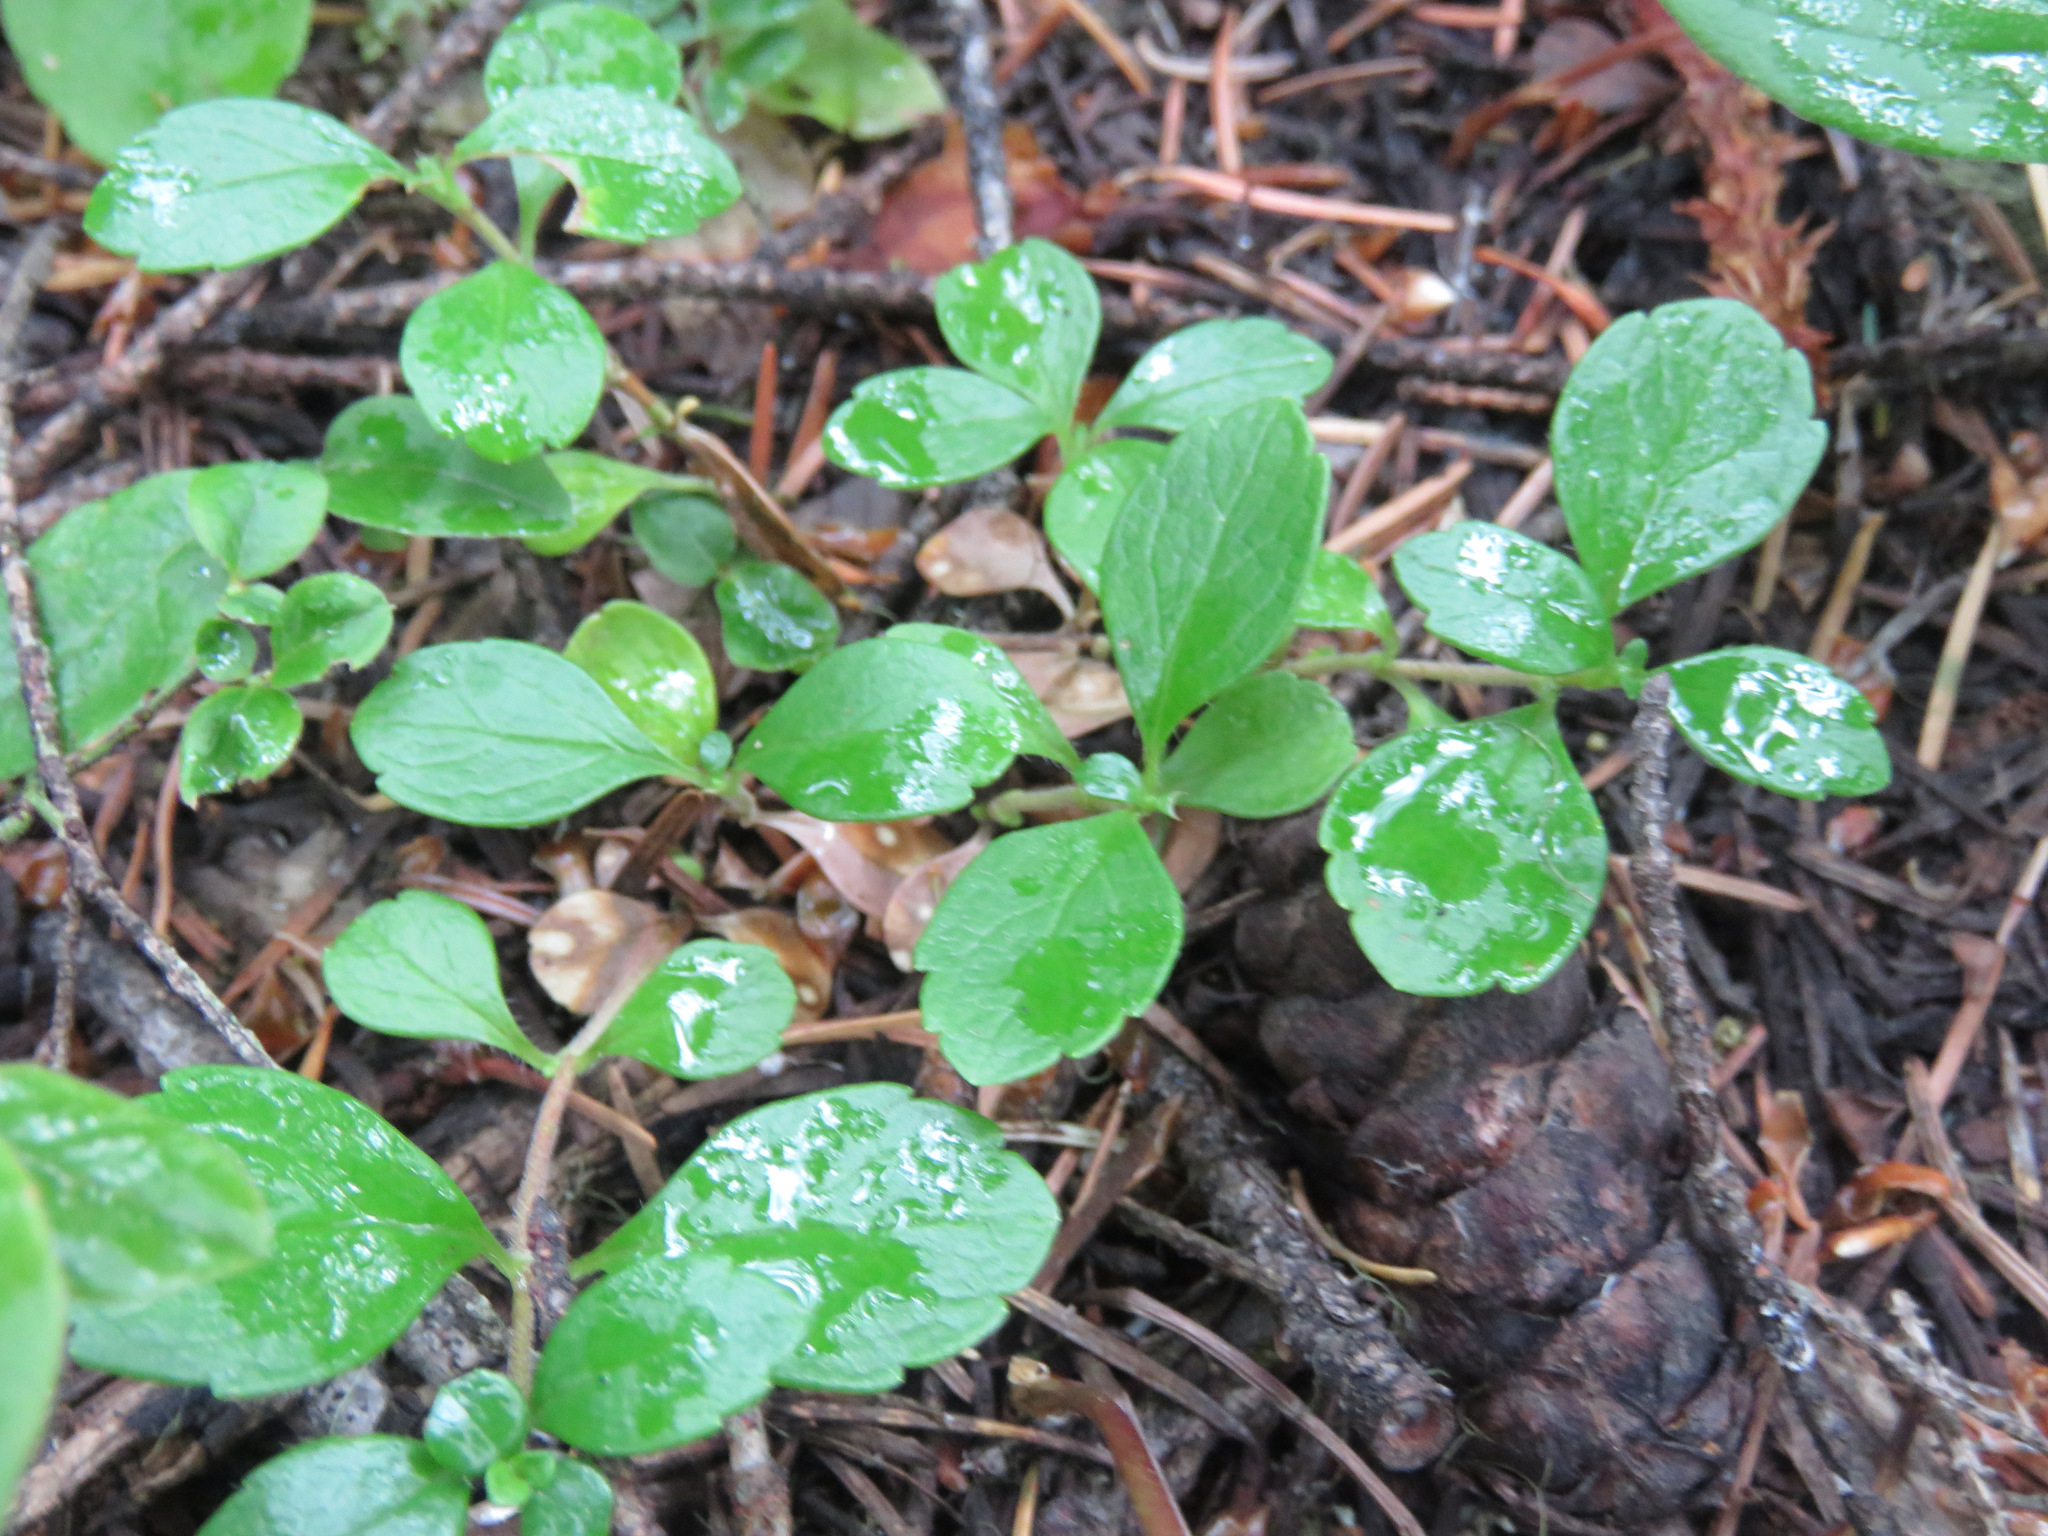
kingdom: Plantae
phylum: Tracheophyta
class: Magnoliopsida
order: Dipsacales
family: Caprifoliaceae
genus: Linnaea
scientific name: Linnaea borealis
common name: Twinflower
